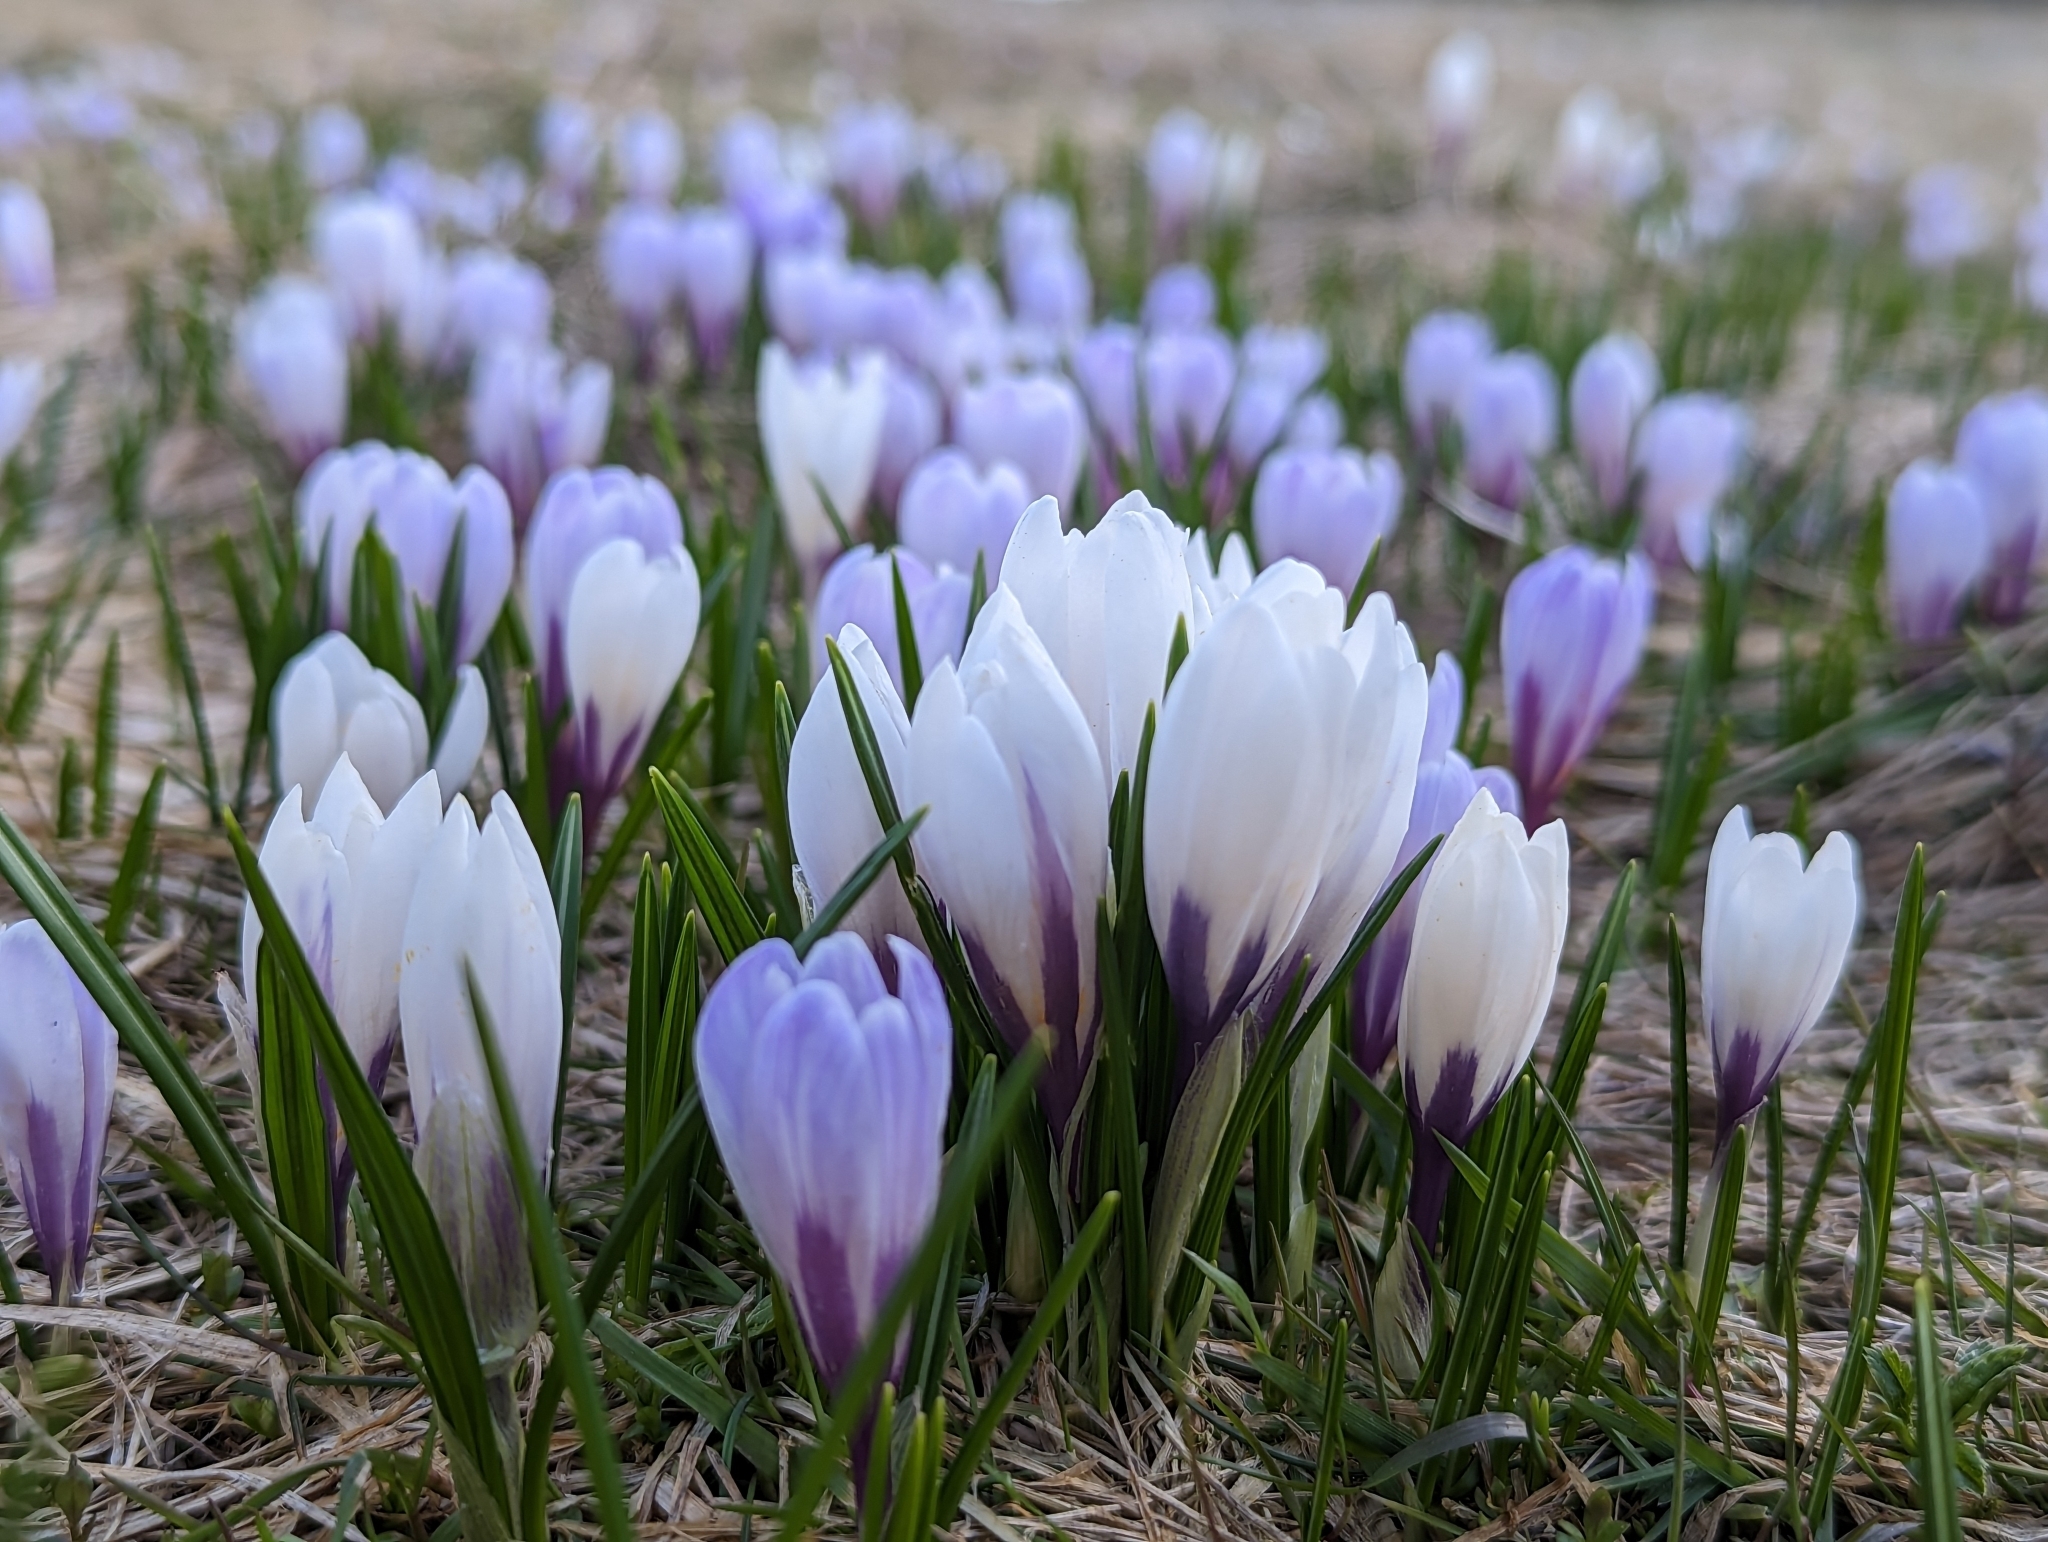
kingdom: Plantae
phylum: Tracheophyta
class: Liliopsida
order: Asparagales
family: Iridaceae
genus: Crocus
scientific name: Crocus vernus
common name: Spring crocus
